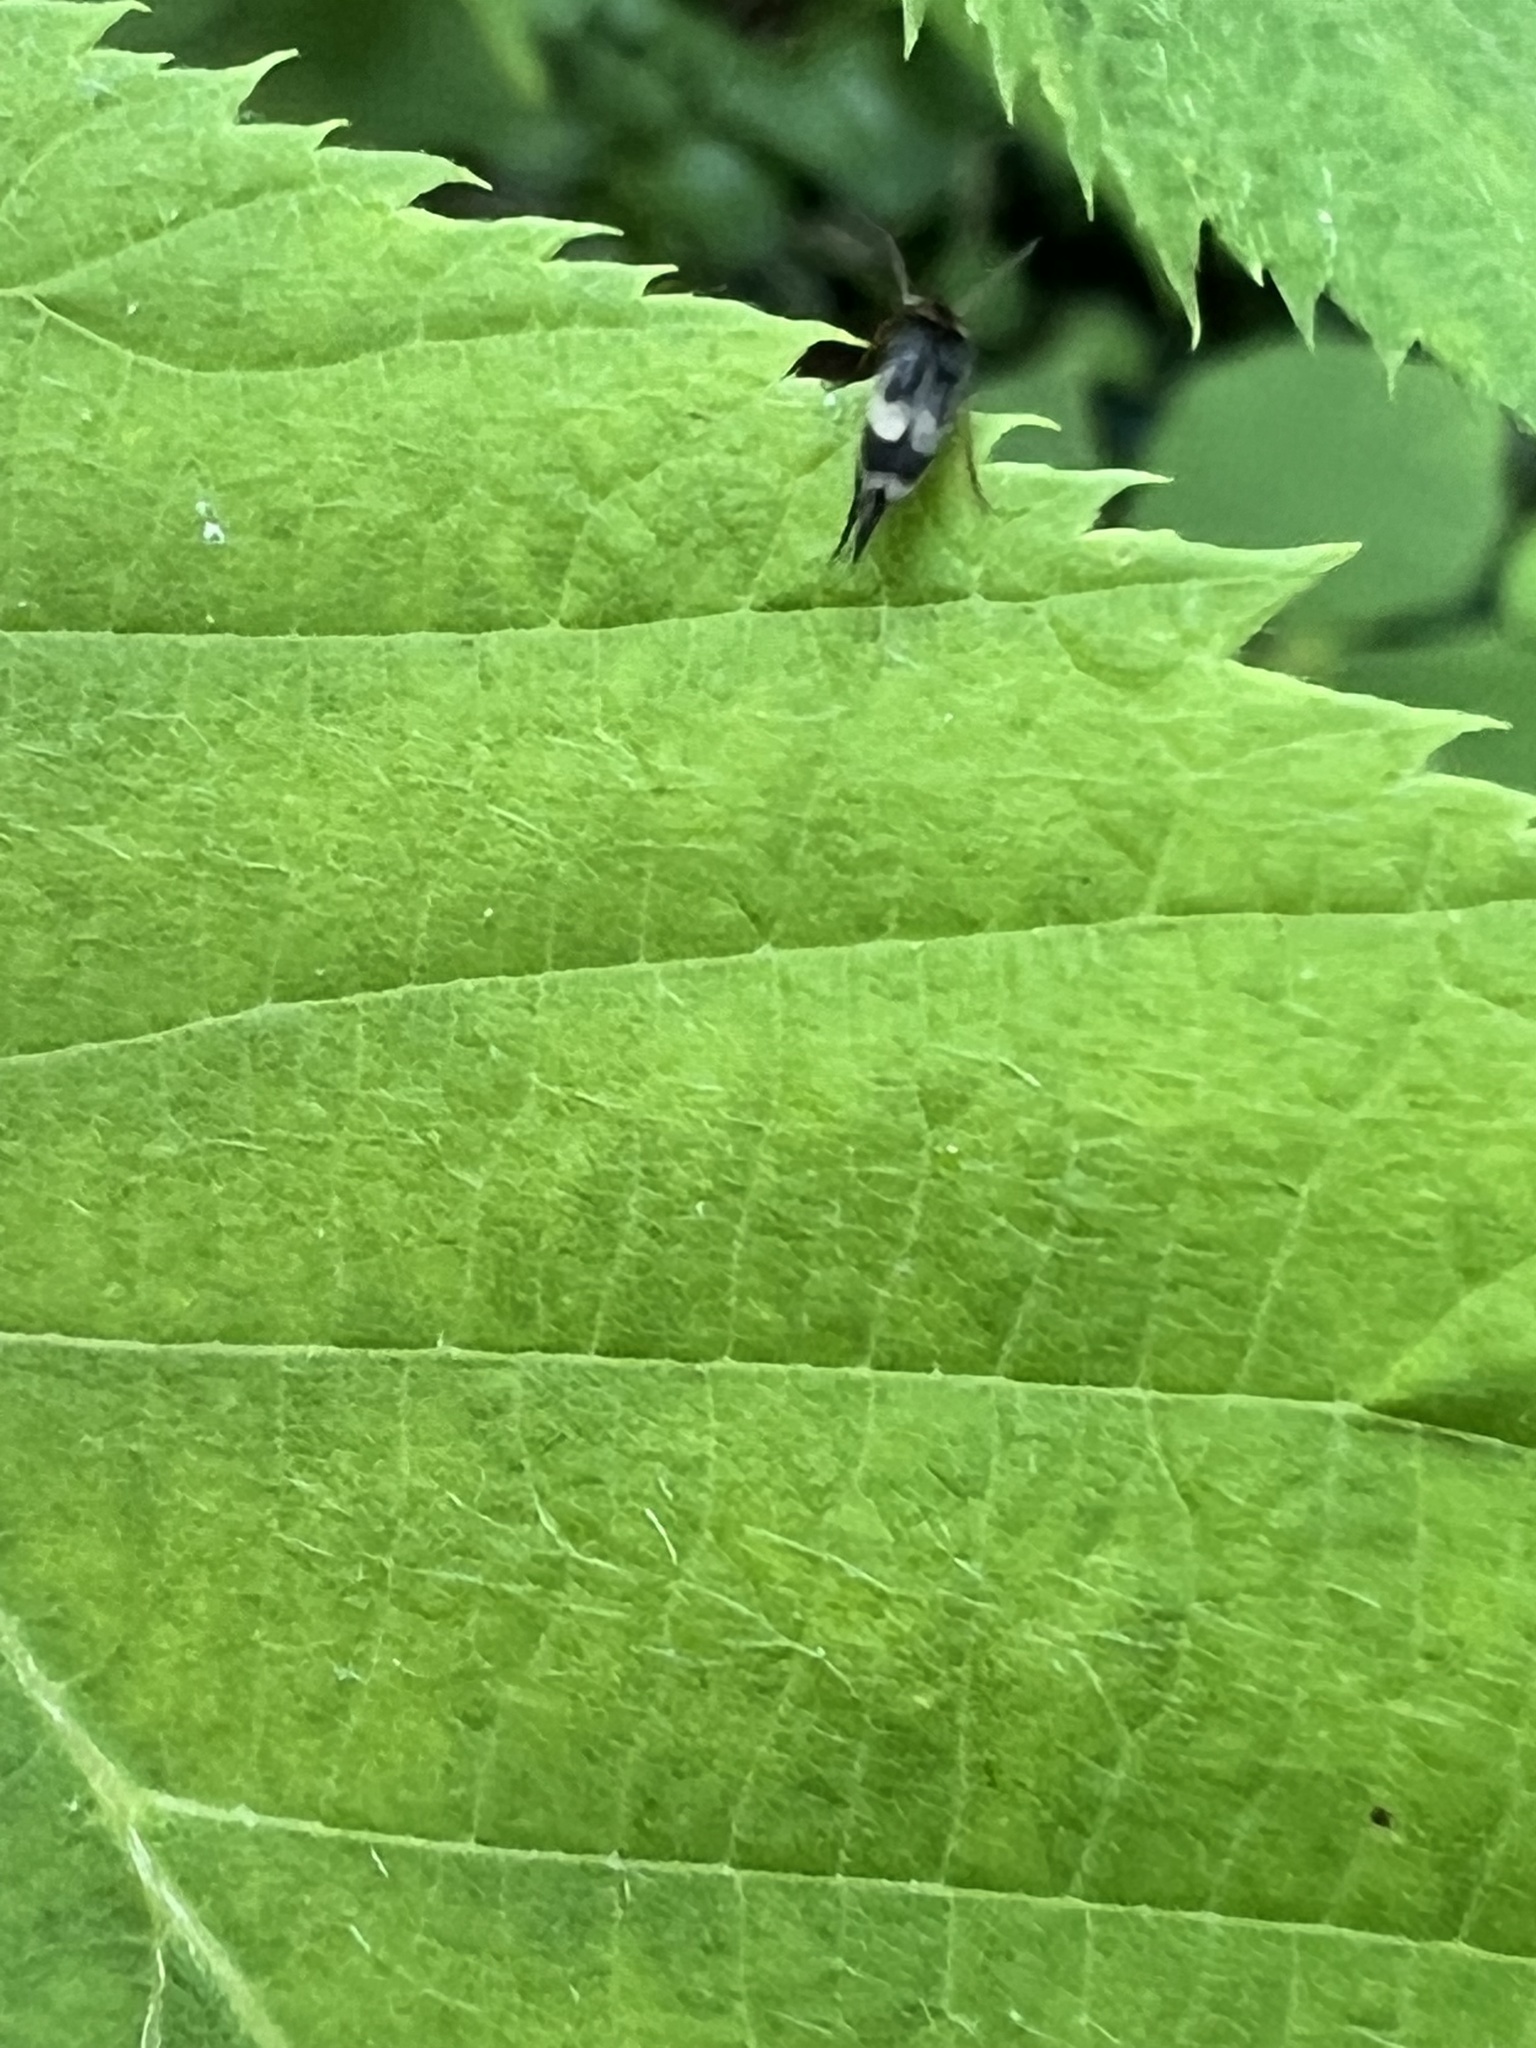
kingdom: Animalia
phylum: Arthropoda
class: Insecta
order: Coleoptera
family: Mordellidae
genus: Falsomordellistena
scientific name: Falsomordellistena hebraica
